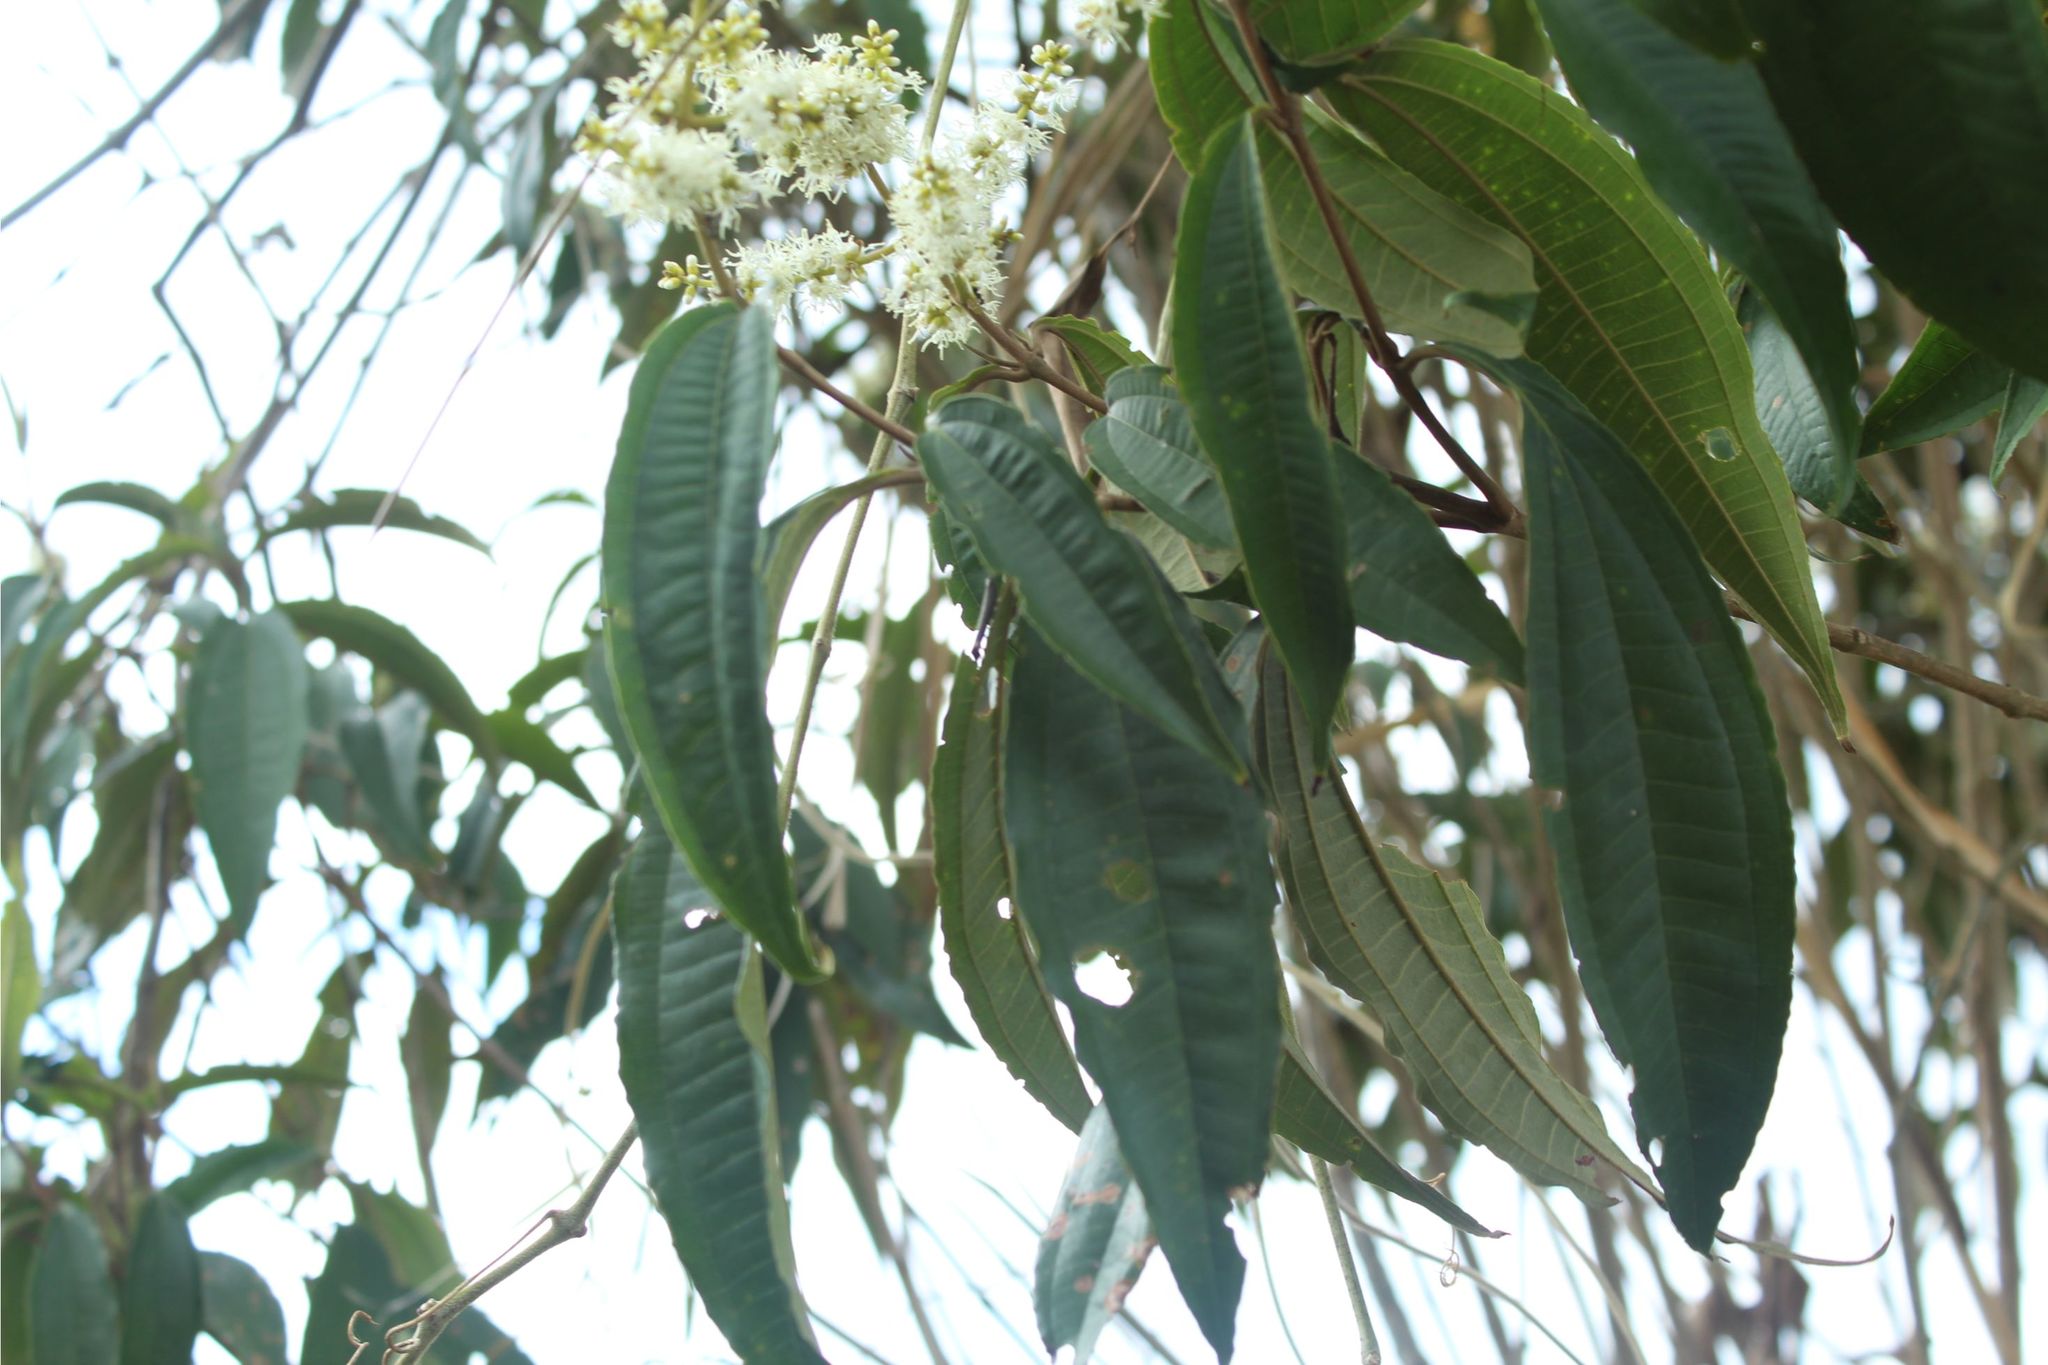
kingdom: Plantae
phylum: Tracheophyta
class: Magnoliopsida
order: Myrtales
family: Melastomataceae
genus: Miconia
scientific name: Miconia prasina
